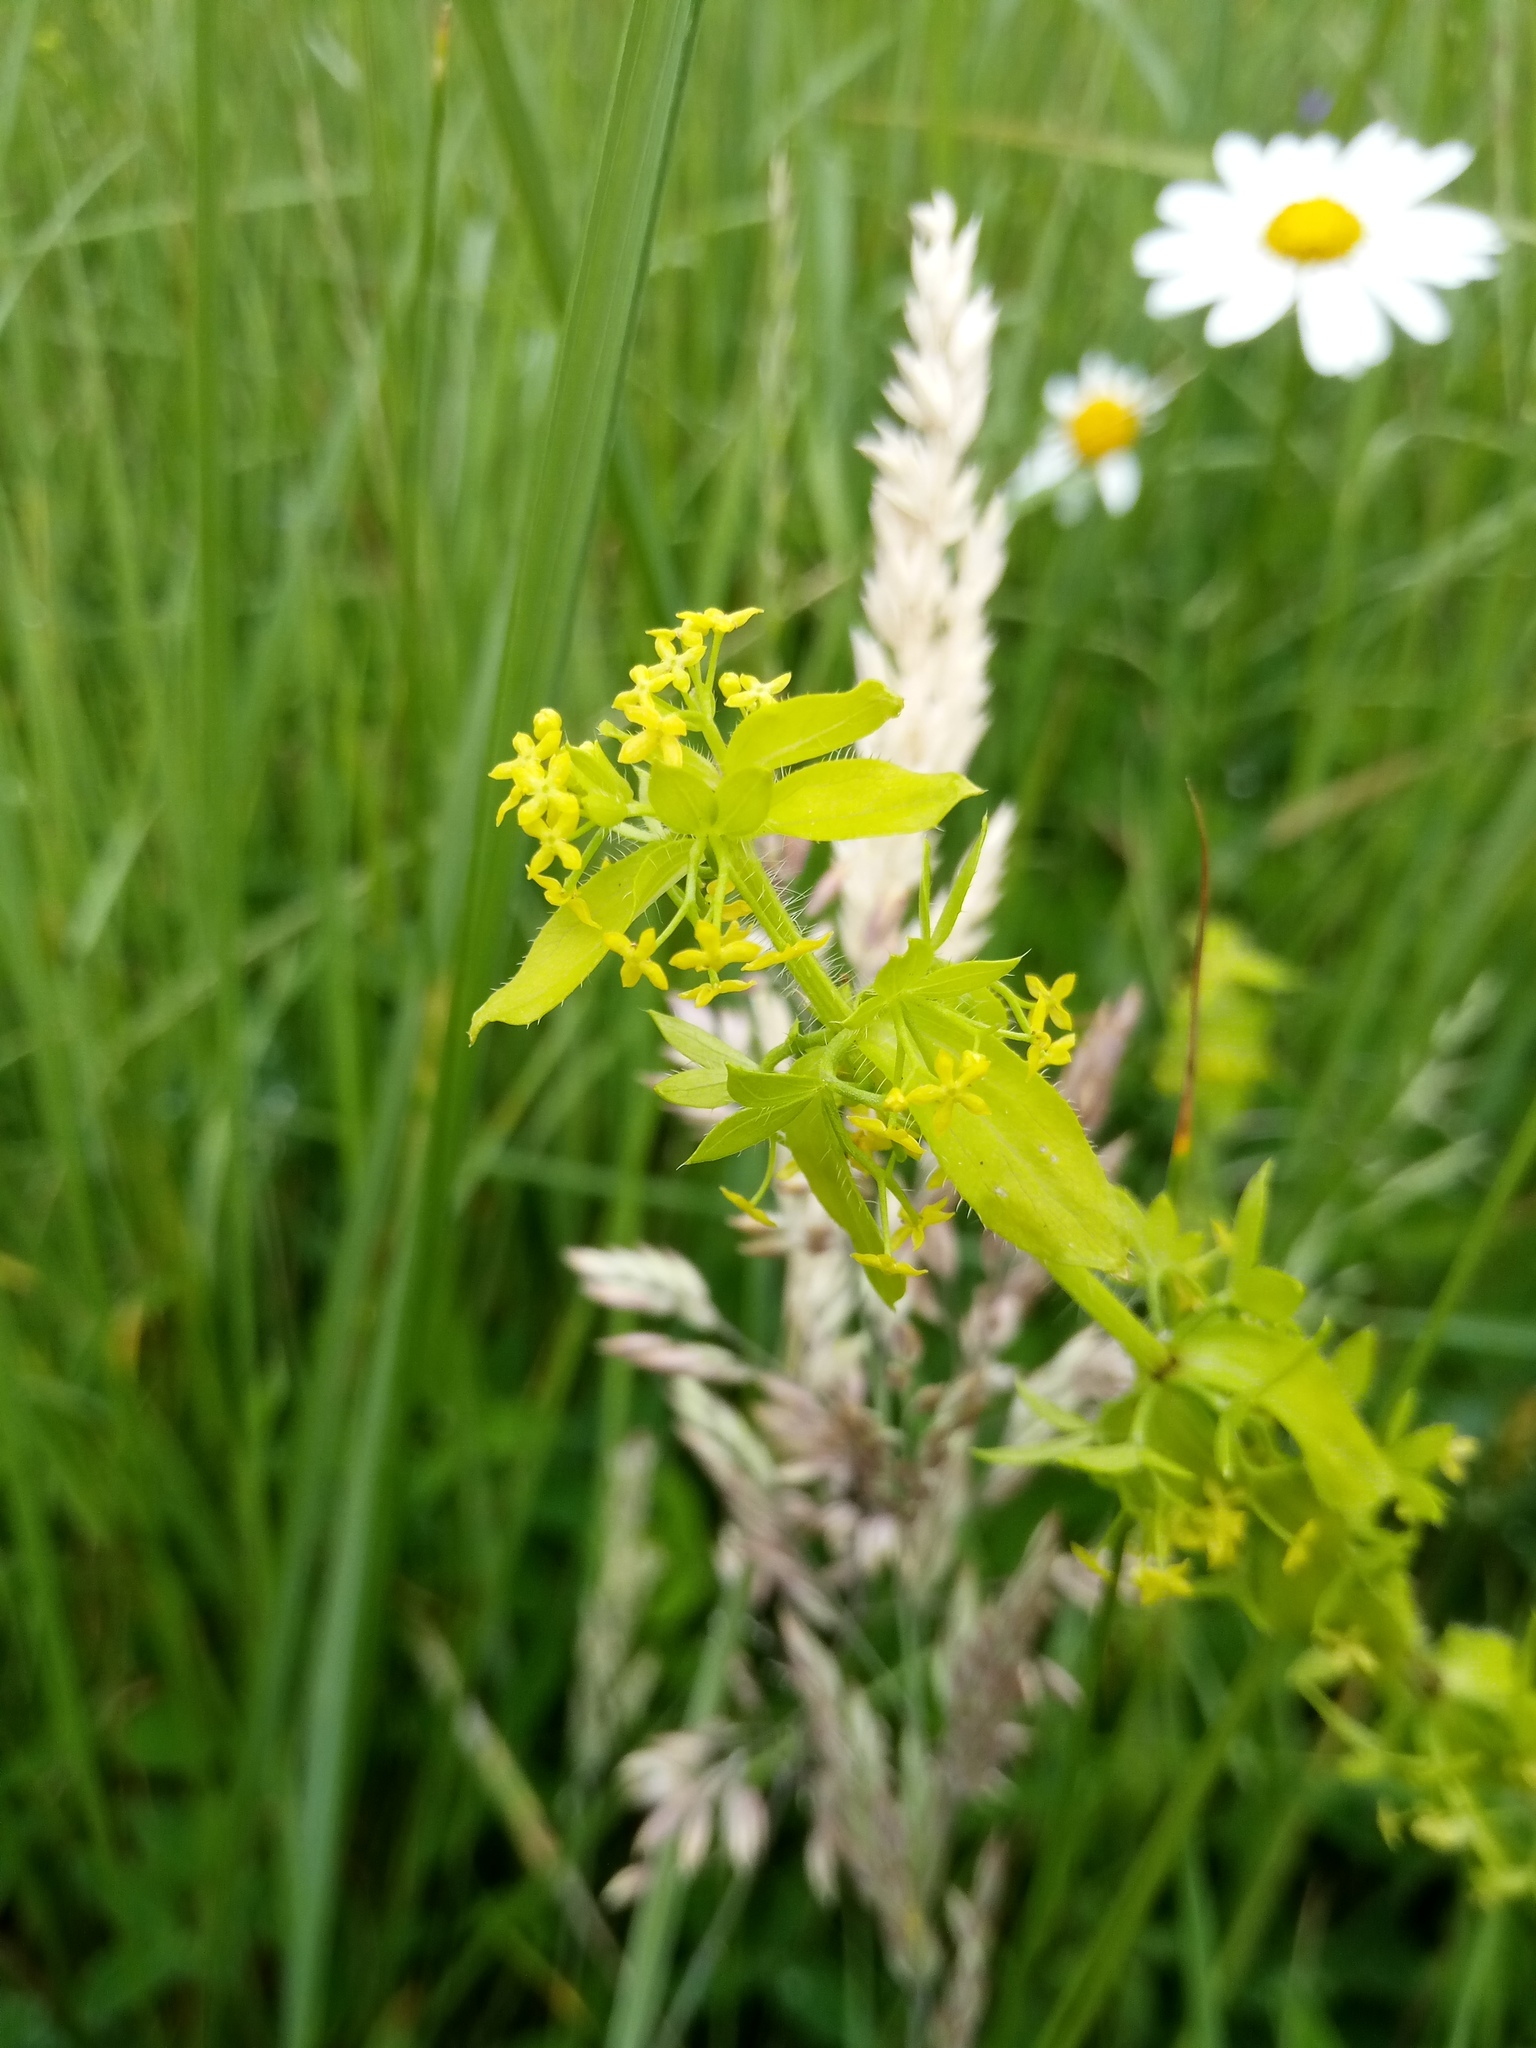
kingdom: Plantae
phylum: Tracheophyta
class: Magnoliopsida
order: Gentianales
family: Rubiaceae
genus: Cruciata
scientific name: Cruciata laevipes
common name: Crosswort
